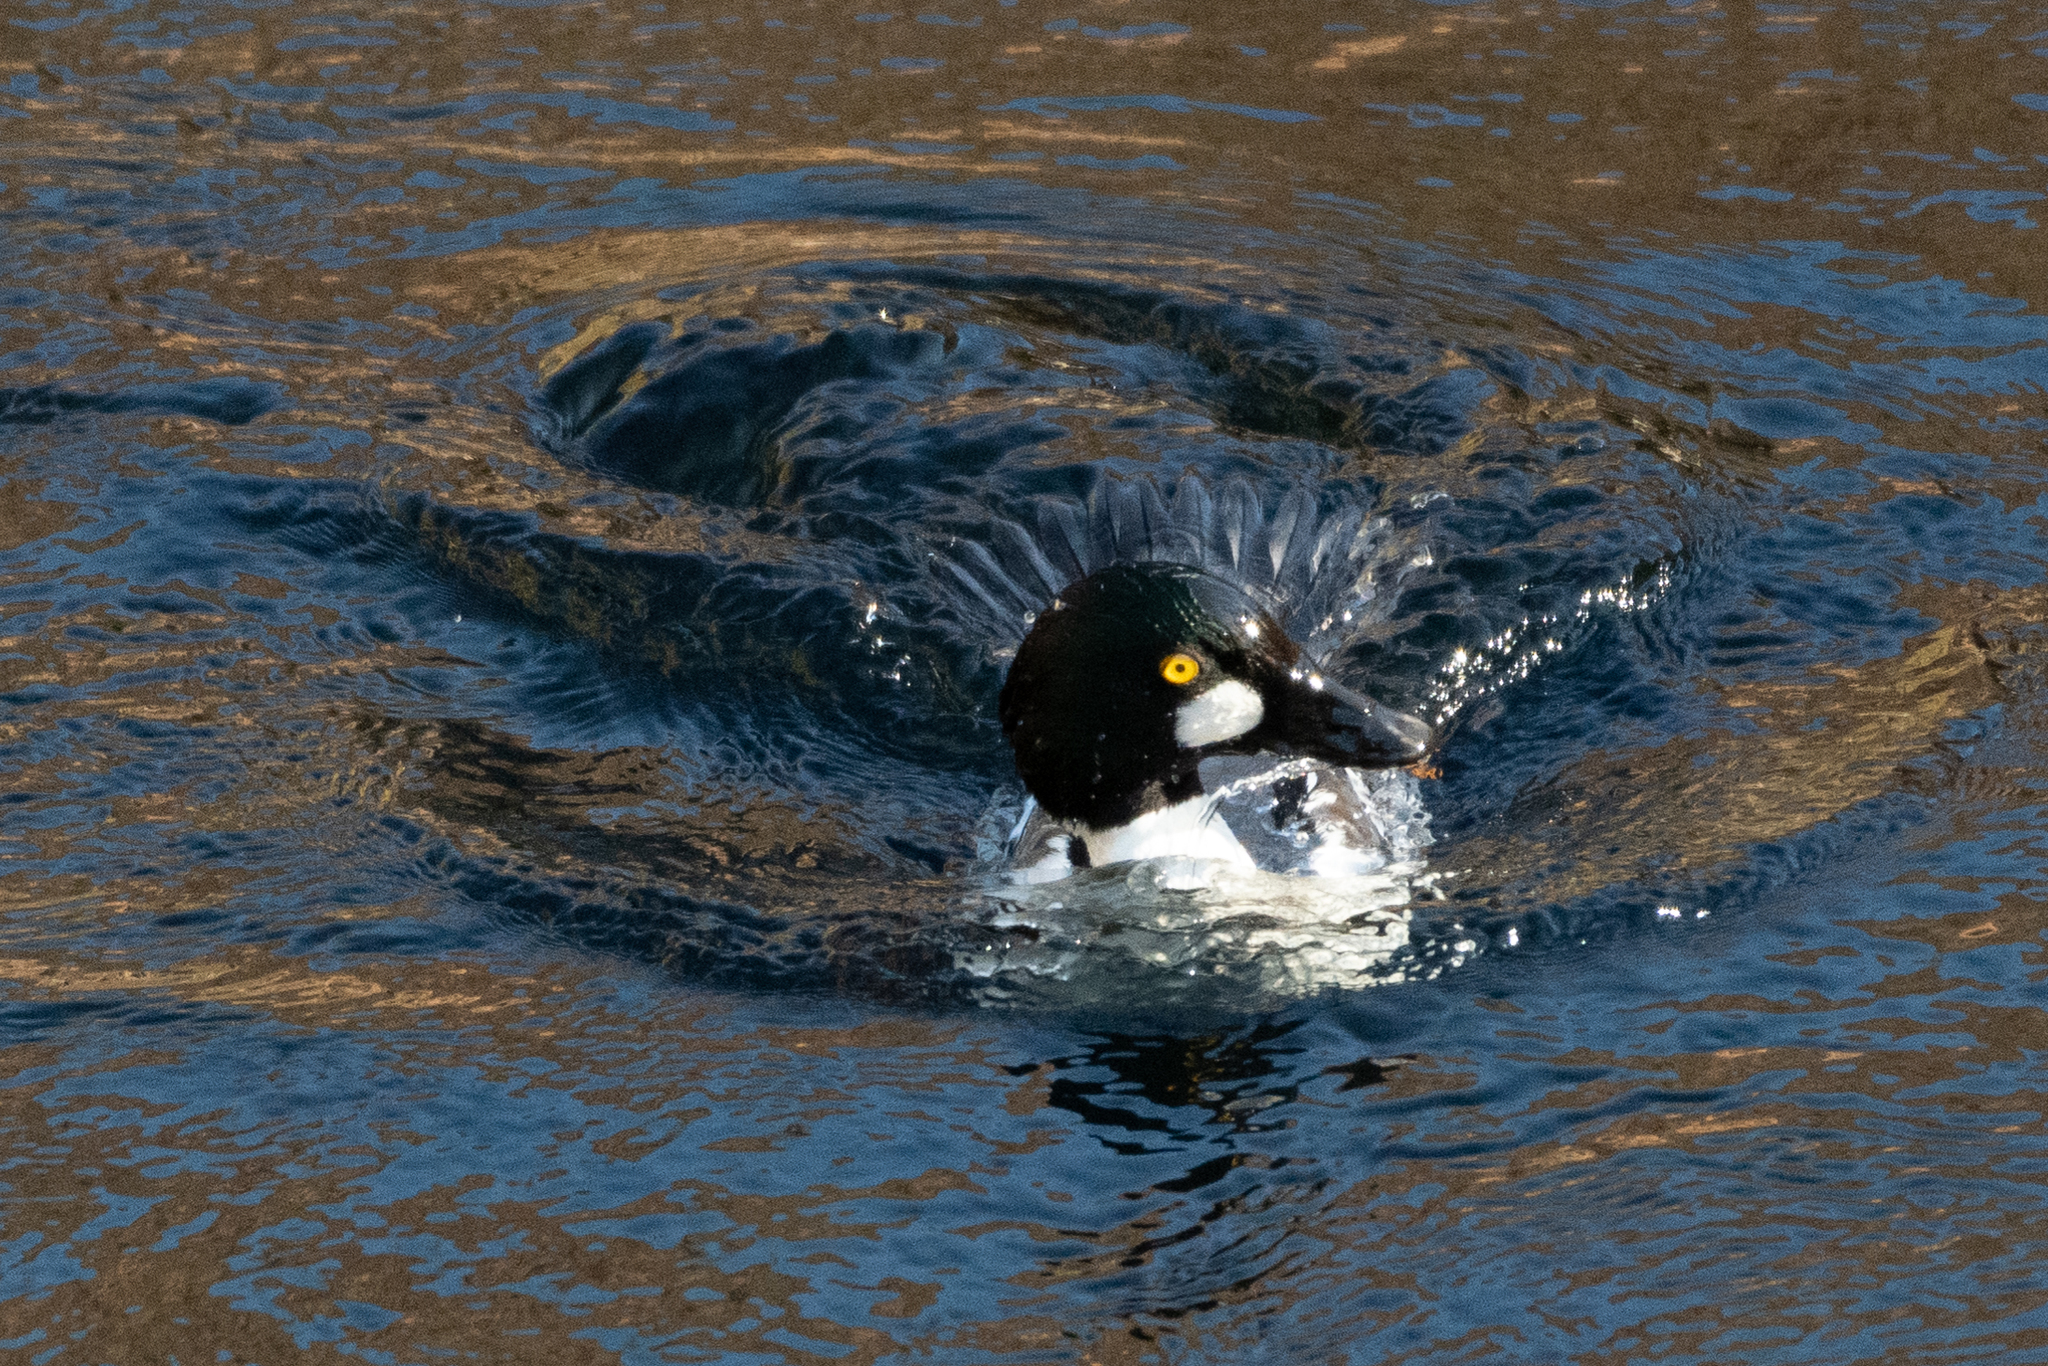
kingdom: Animalia
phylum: Chordata
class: Aves
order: Anseriformes
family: Anatidae
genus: Bucephala
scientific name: Bucephala clangula
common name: Common goldeneye
